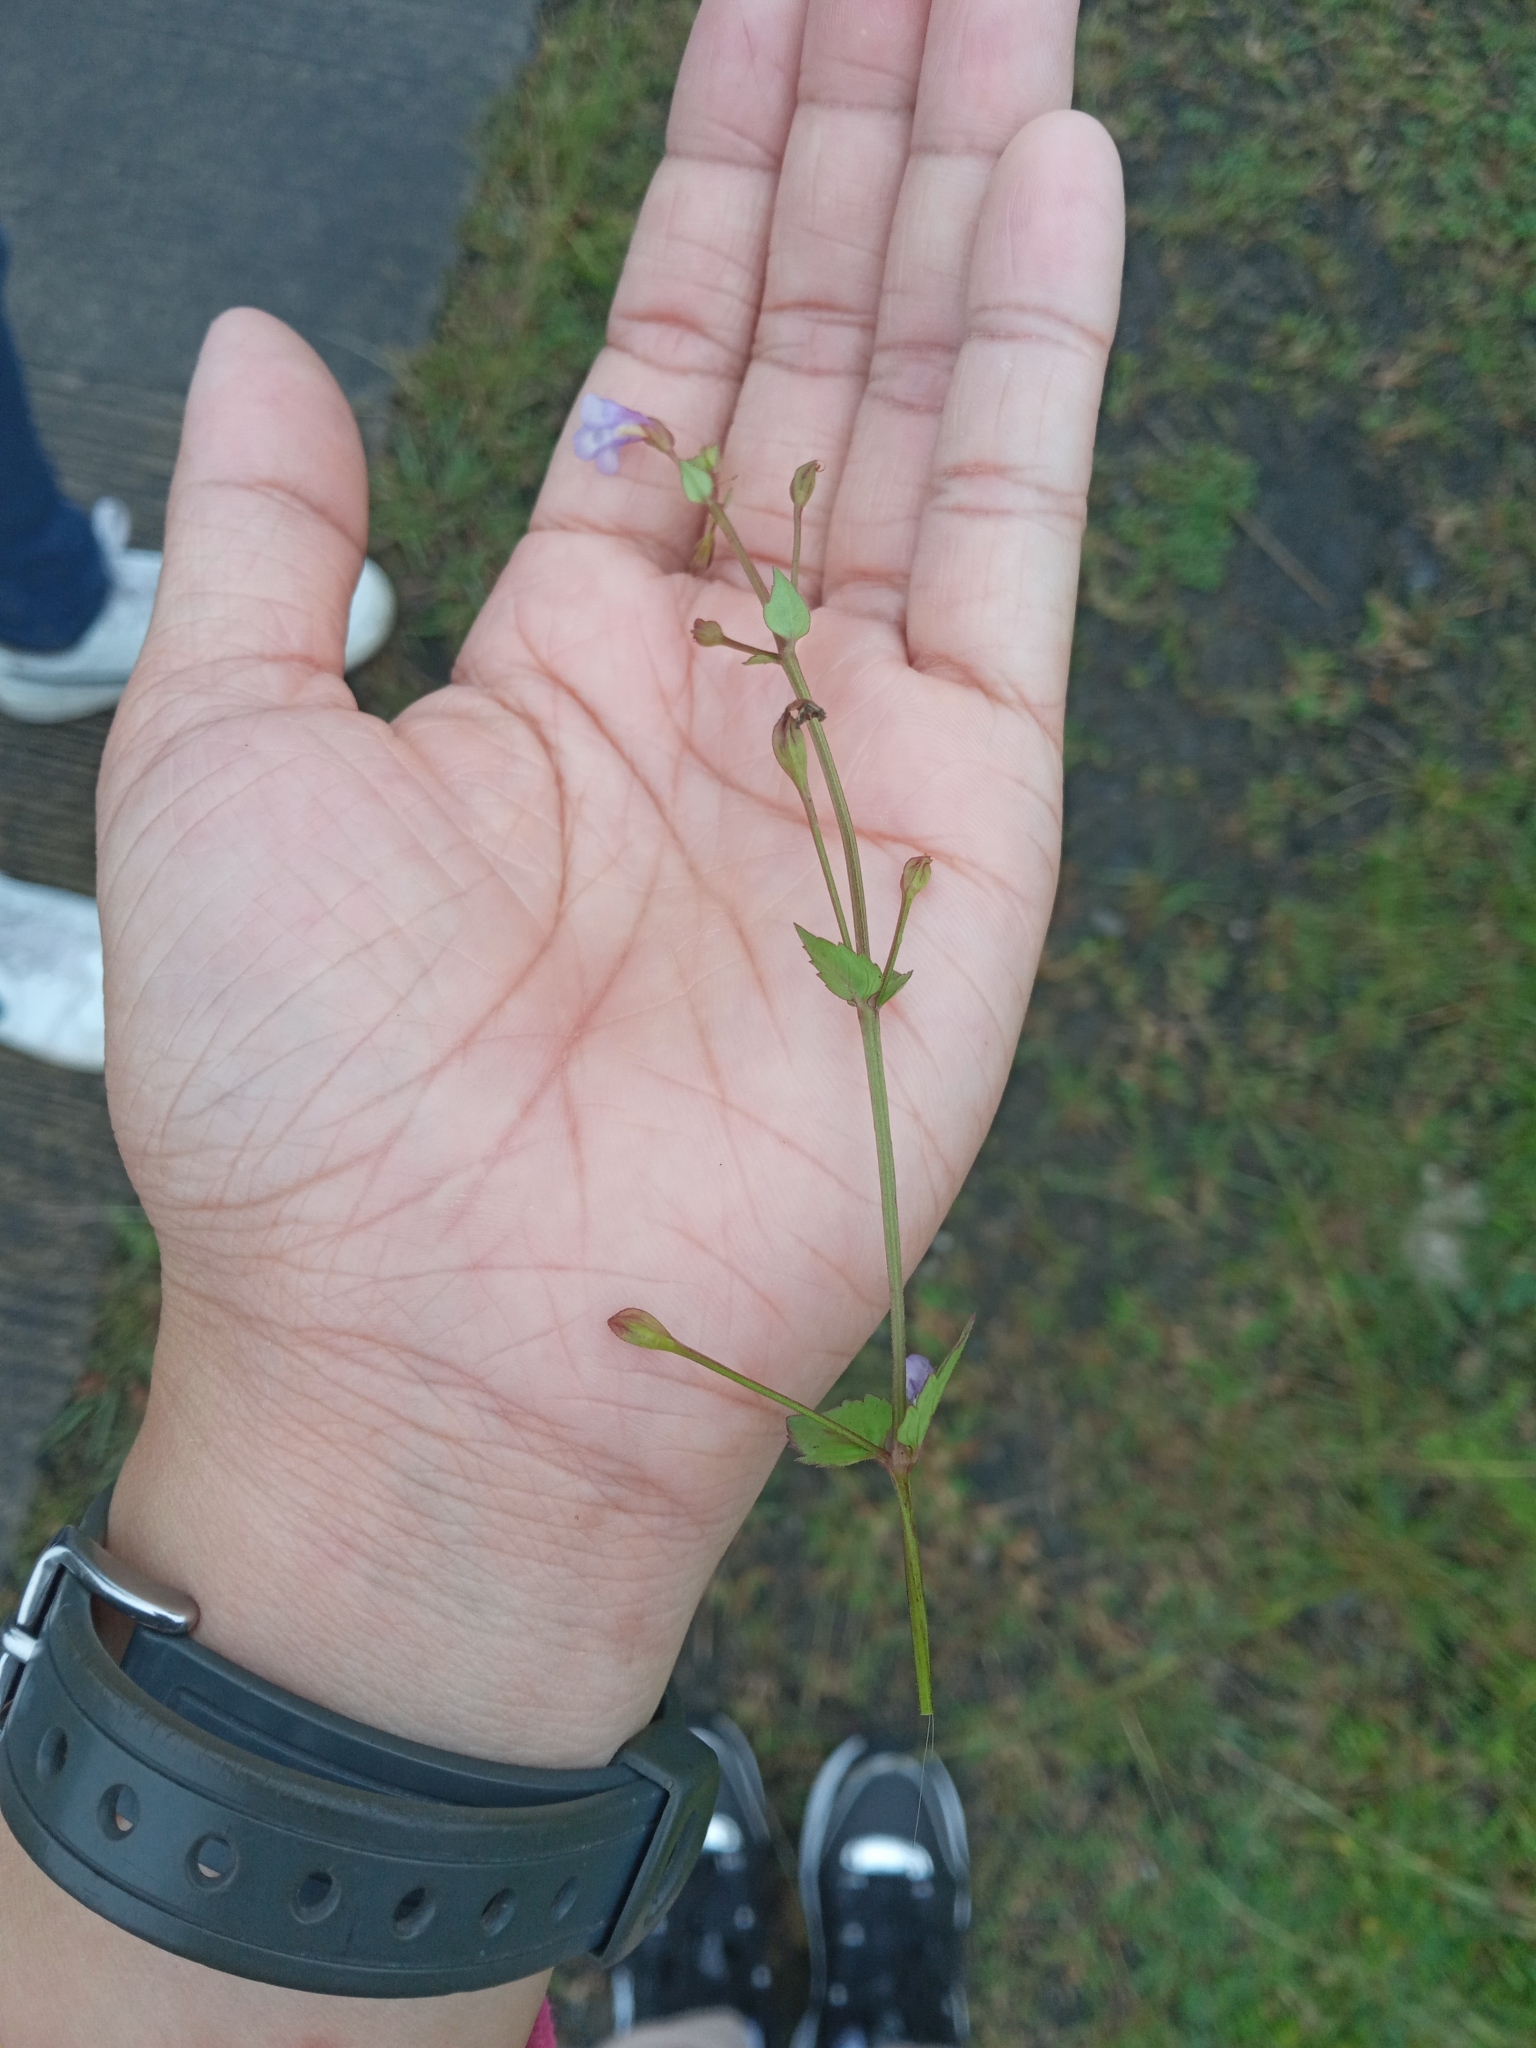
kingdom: Plantae
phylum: Tracheophyta
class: Magnoliopsida
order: Lamiales
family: Linderniaceae
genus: Torenia
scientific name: Torenia crustacea
